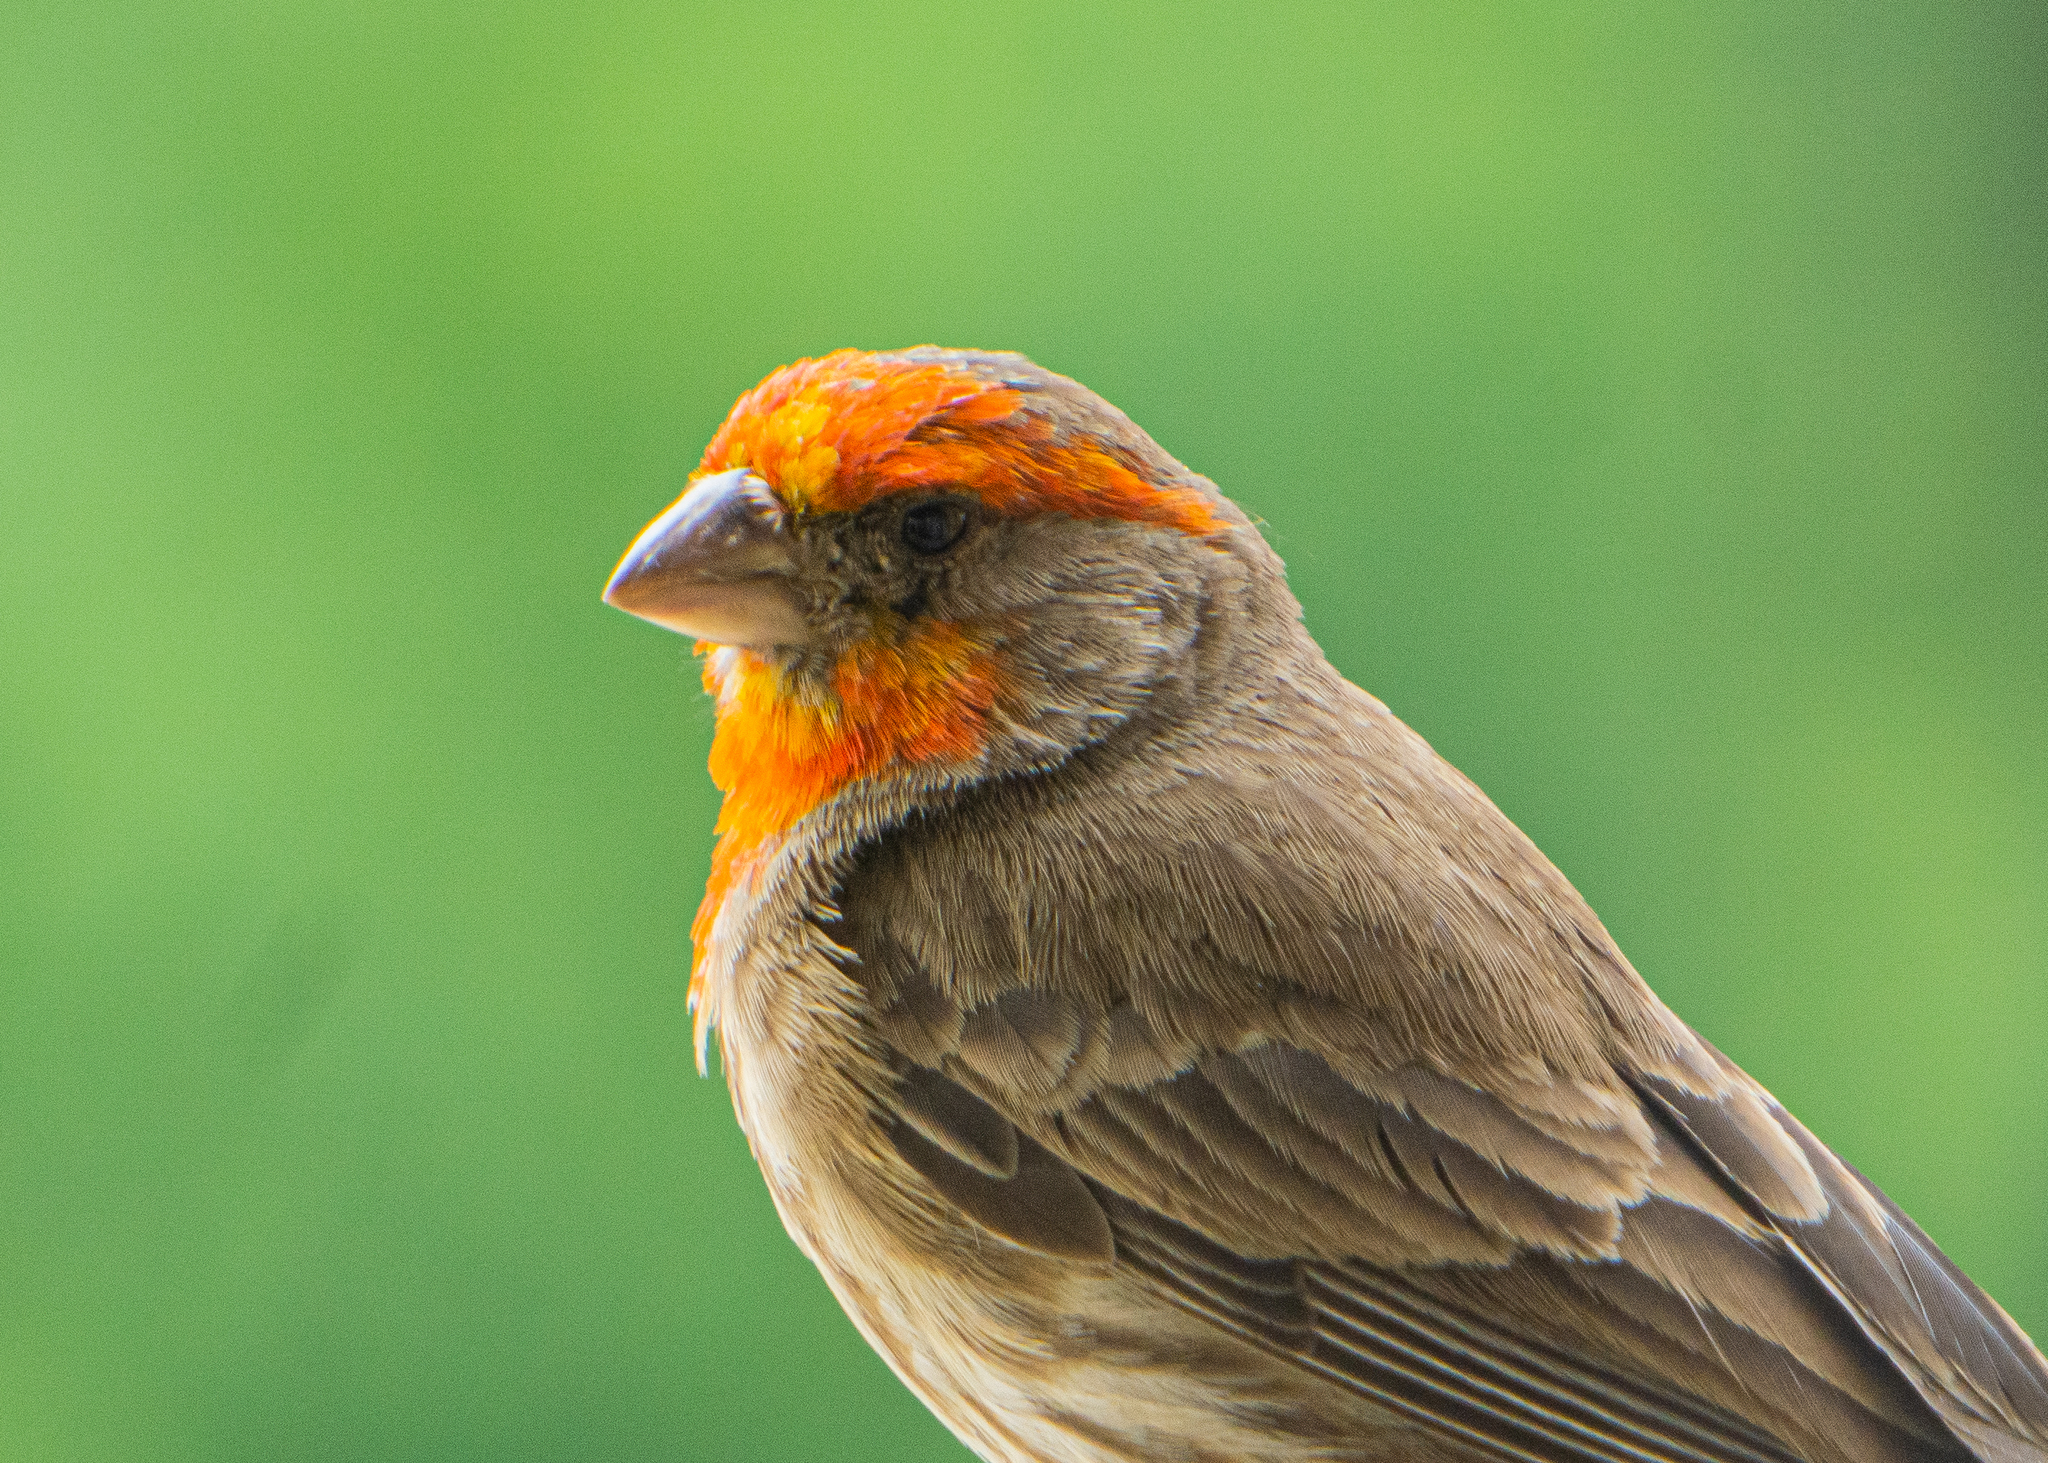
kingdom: Animalia
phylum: Chordata
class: Aves
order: Passeriformes
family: Fringillidae
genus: Haemorhous
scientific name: Haemorhous mexicanus
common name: House finch
